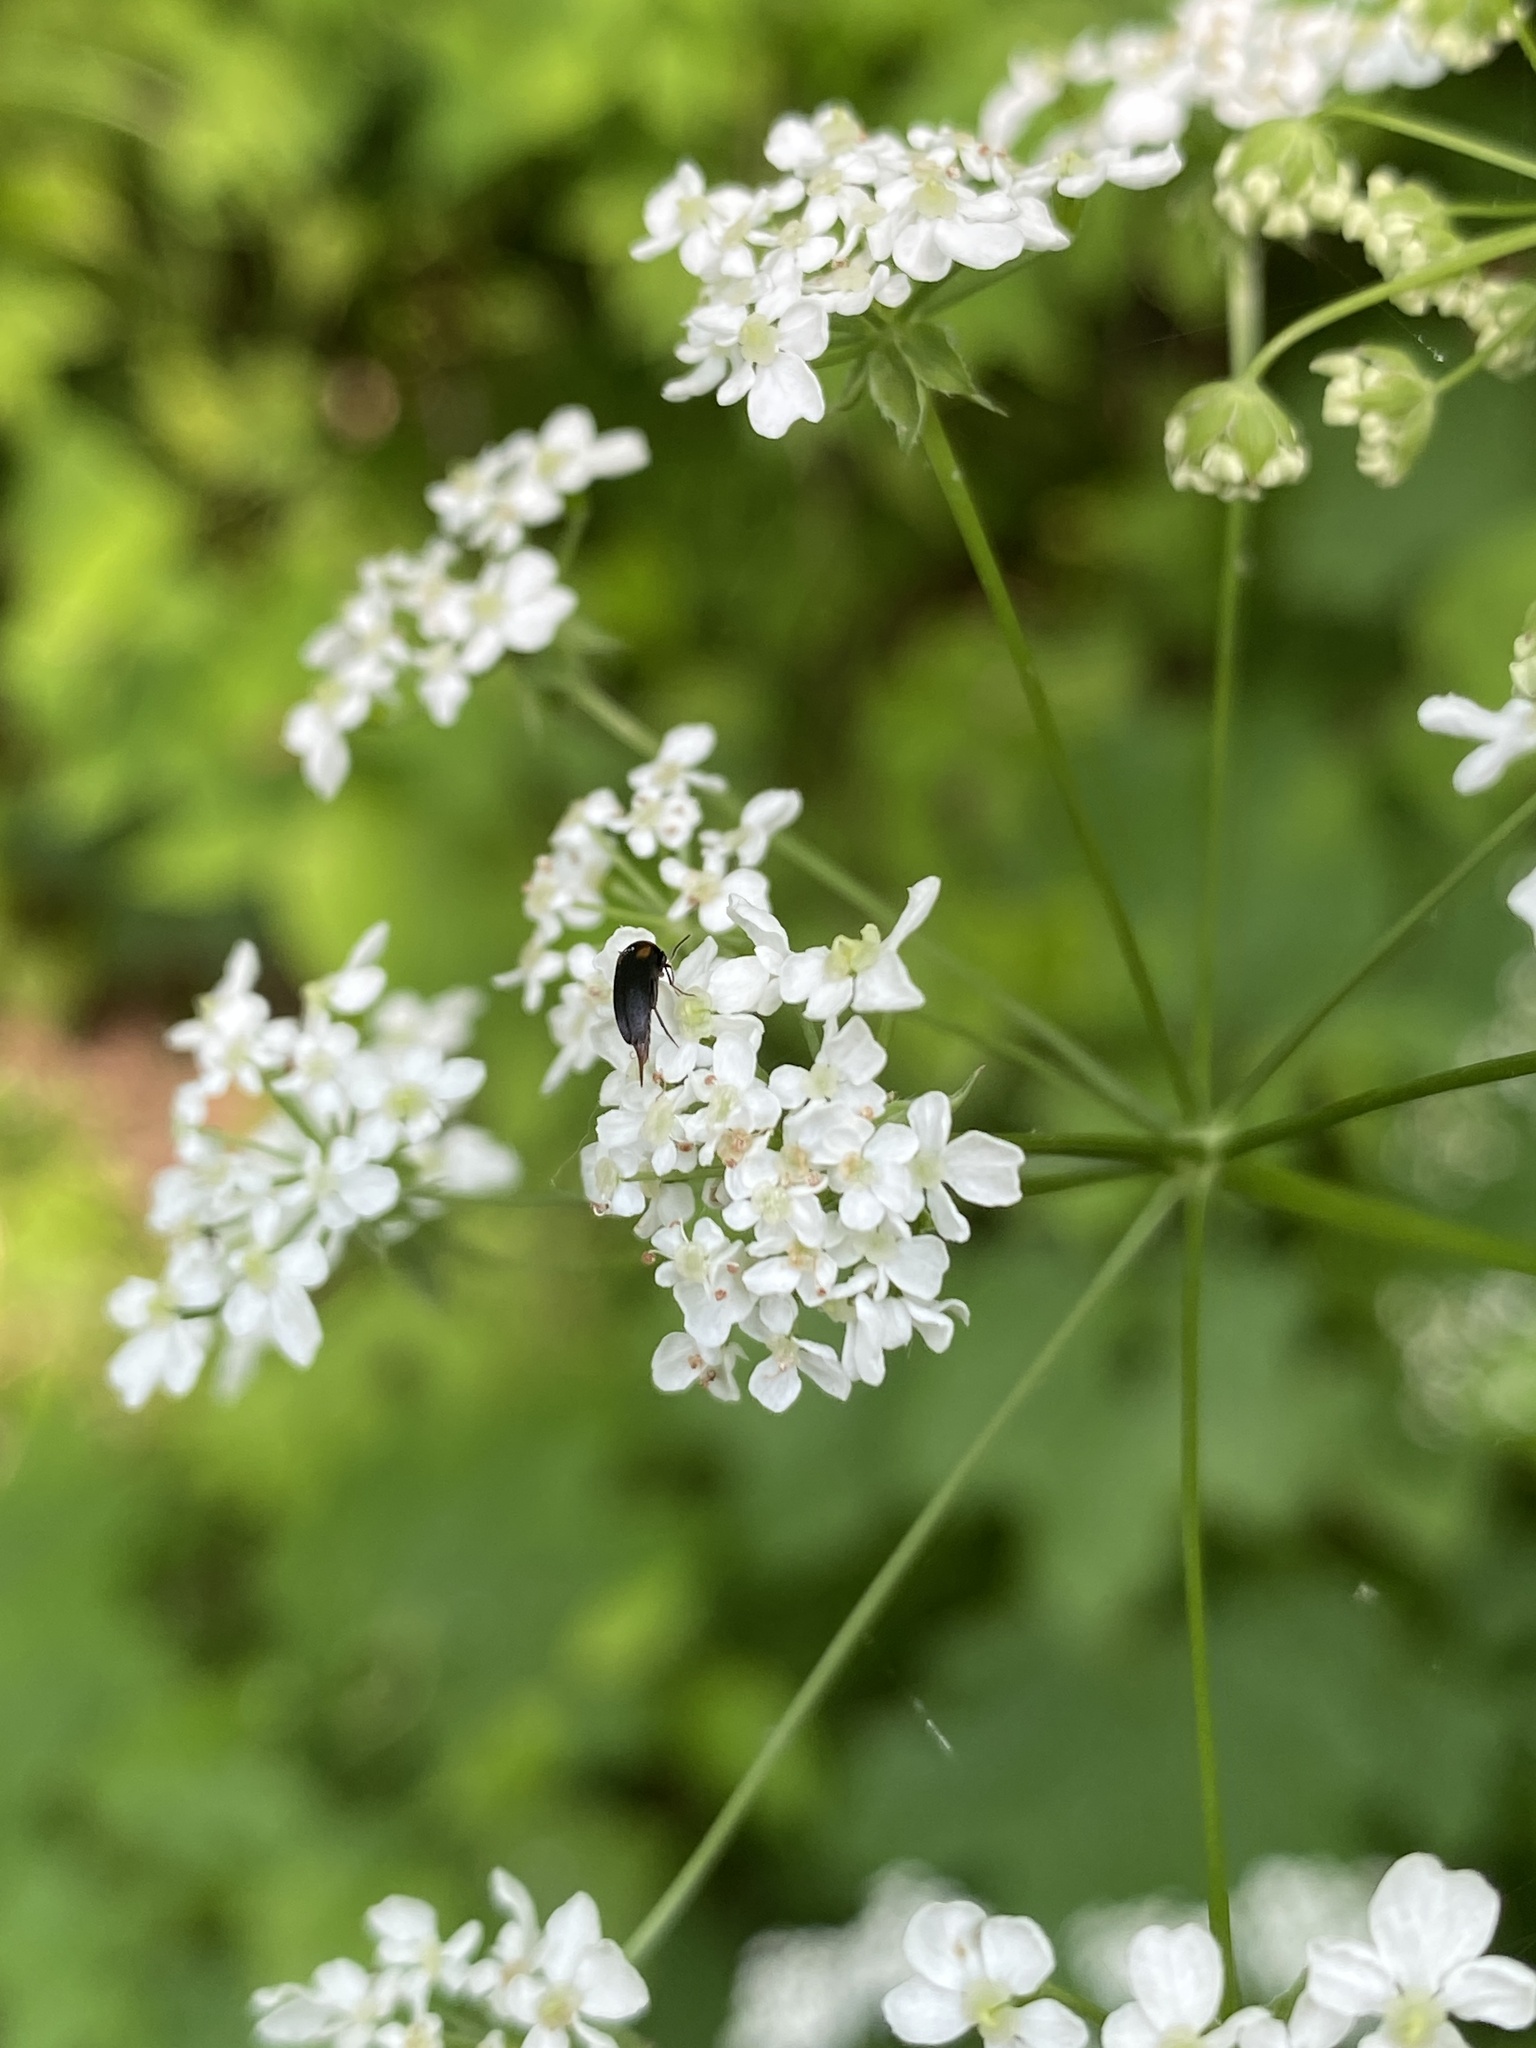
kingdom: Animalia
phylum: Arthropoda
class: Insecta
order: Coleoptera
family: Mordellidae
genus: Mordellochroa
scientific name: Mordellochroa scapularis
